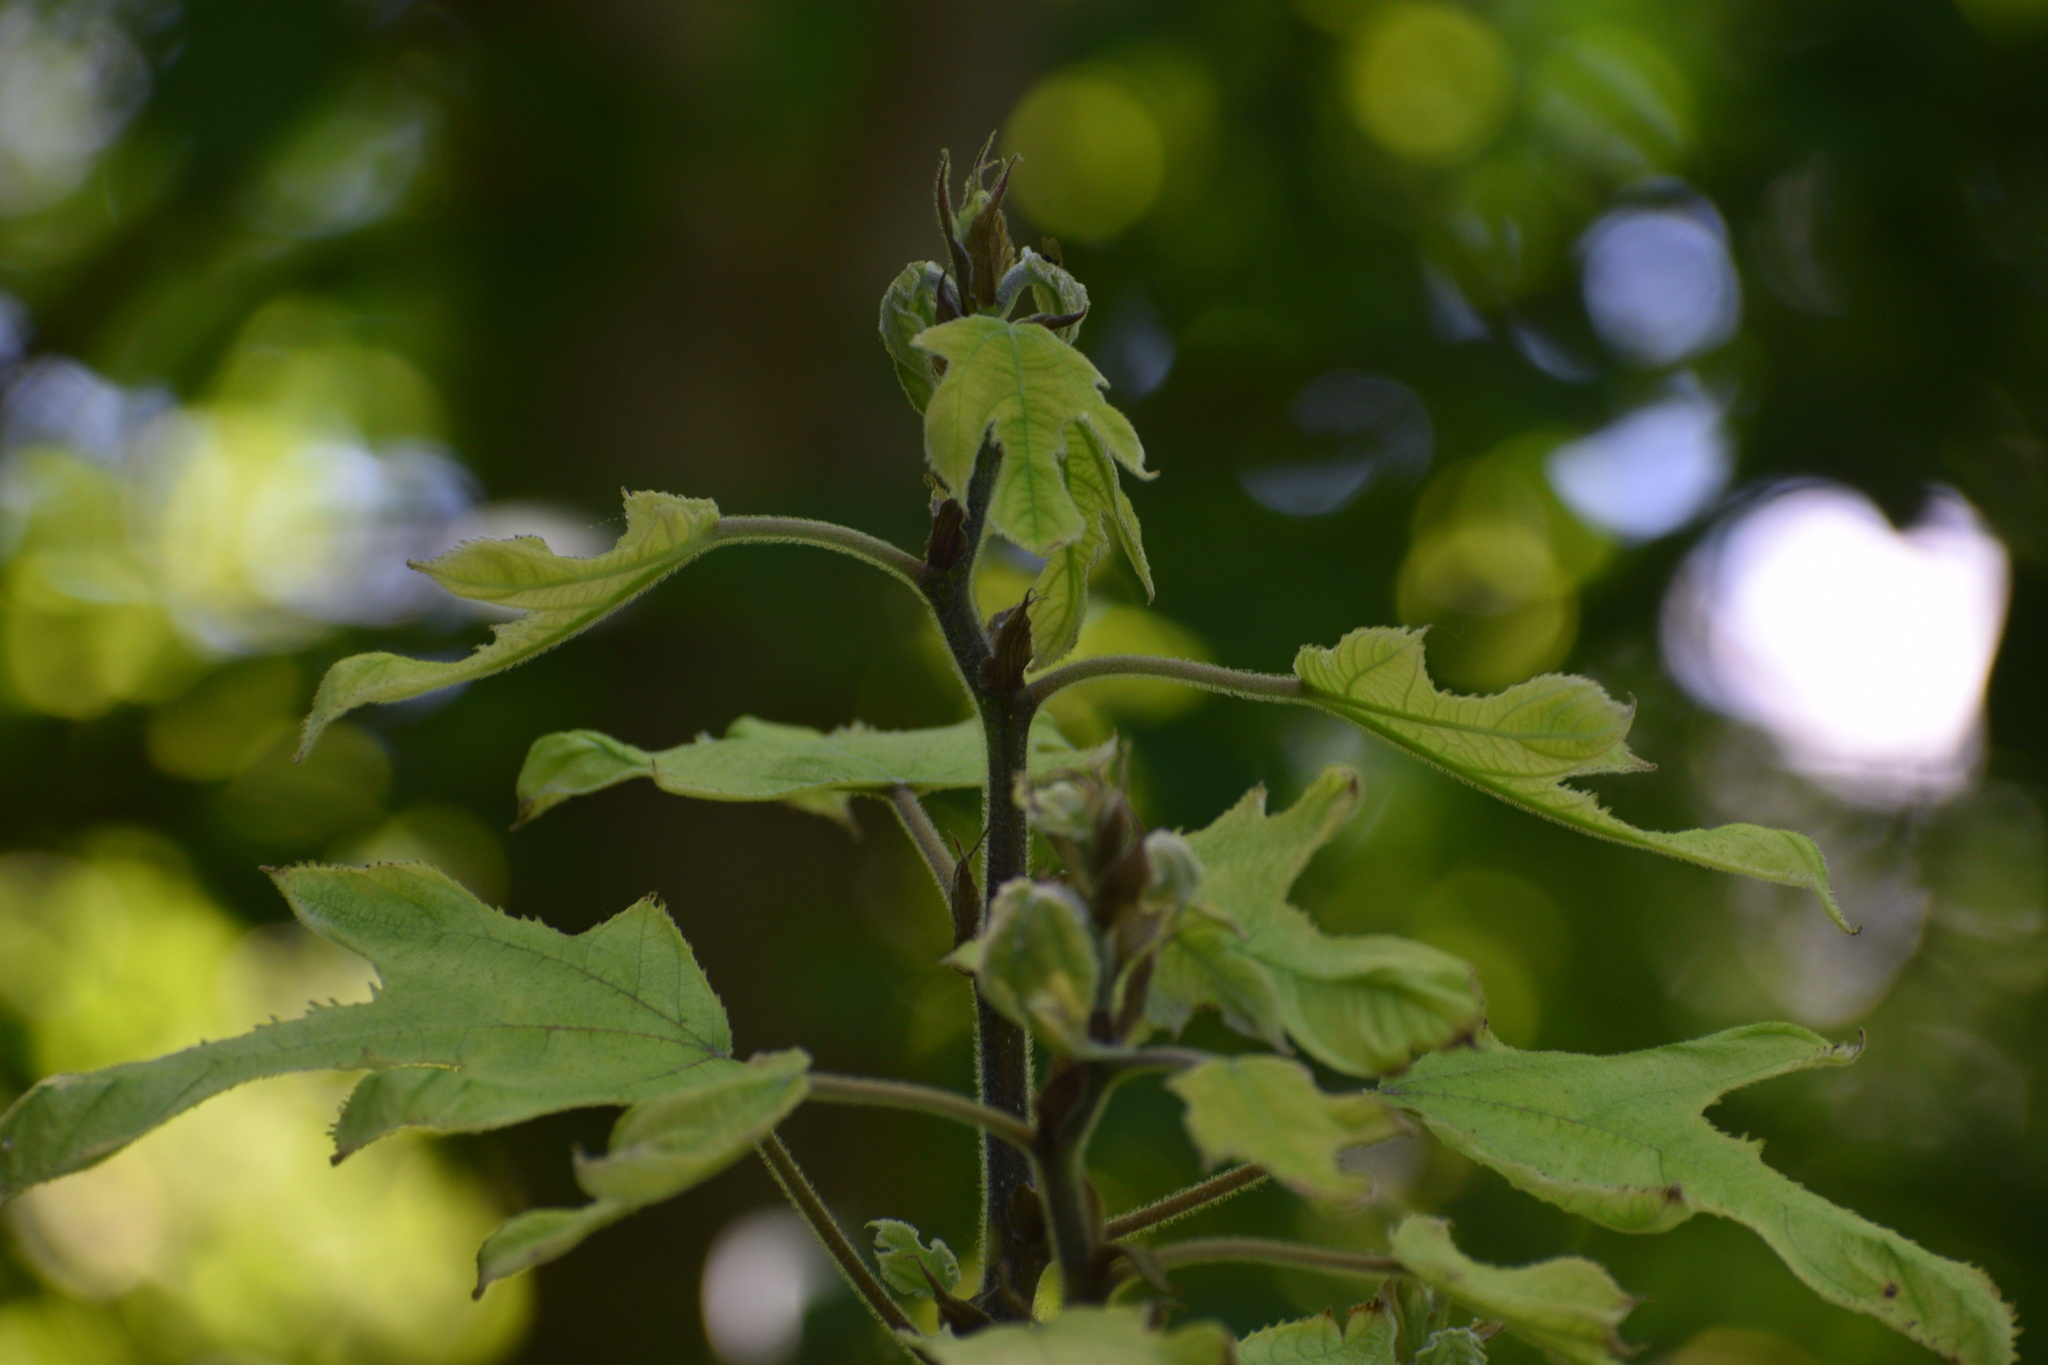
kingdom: Plantae
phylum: Tracheophyta
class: Magnoliopsida
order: Rosales
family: Moraceae
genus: Broussonetia
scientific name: Broussonetia papyrifera
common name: Paper mulberry
